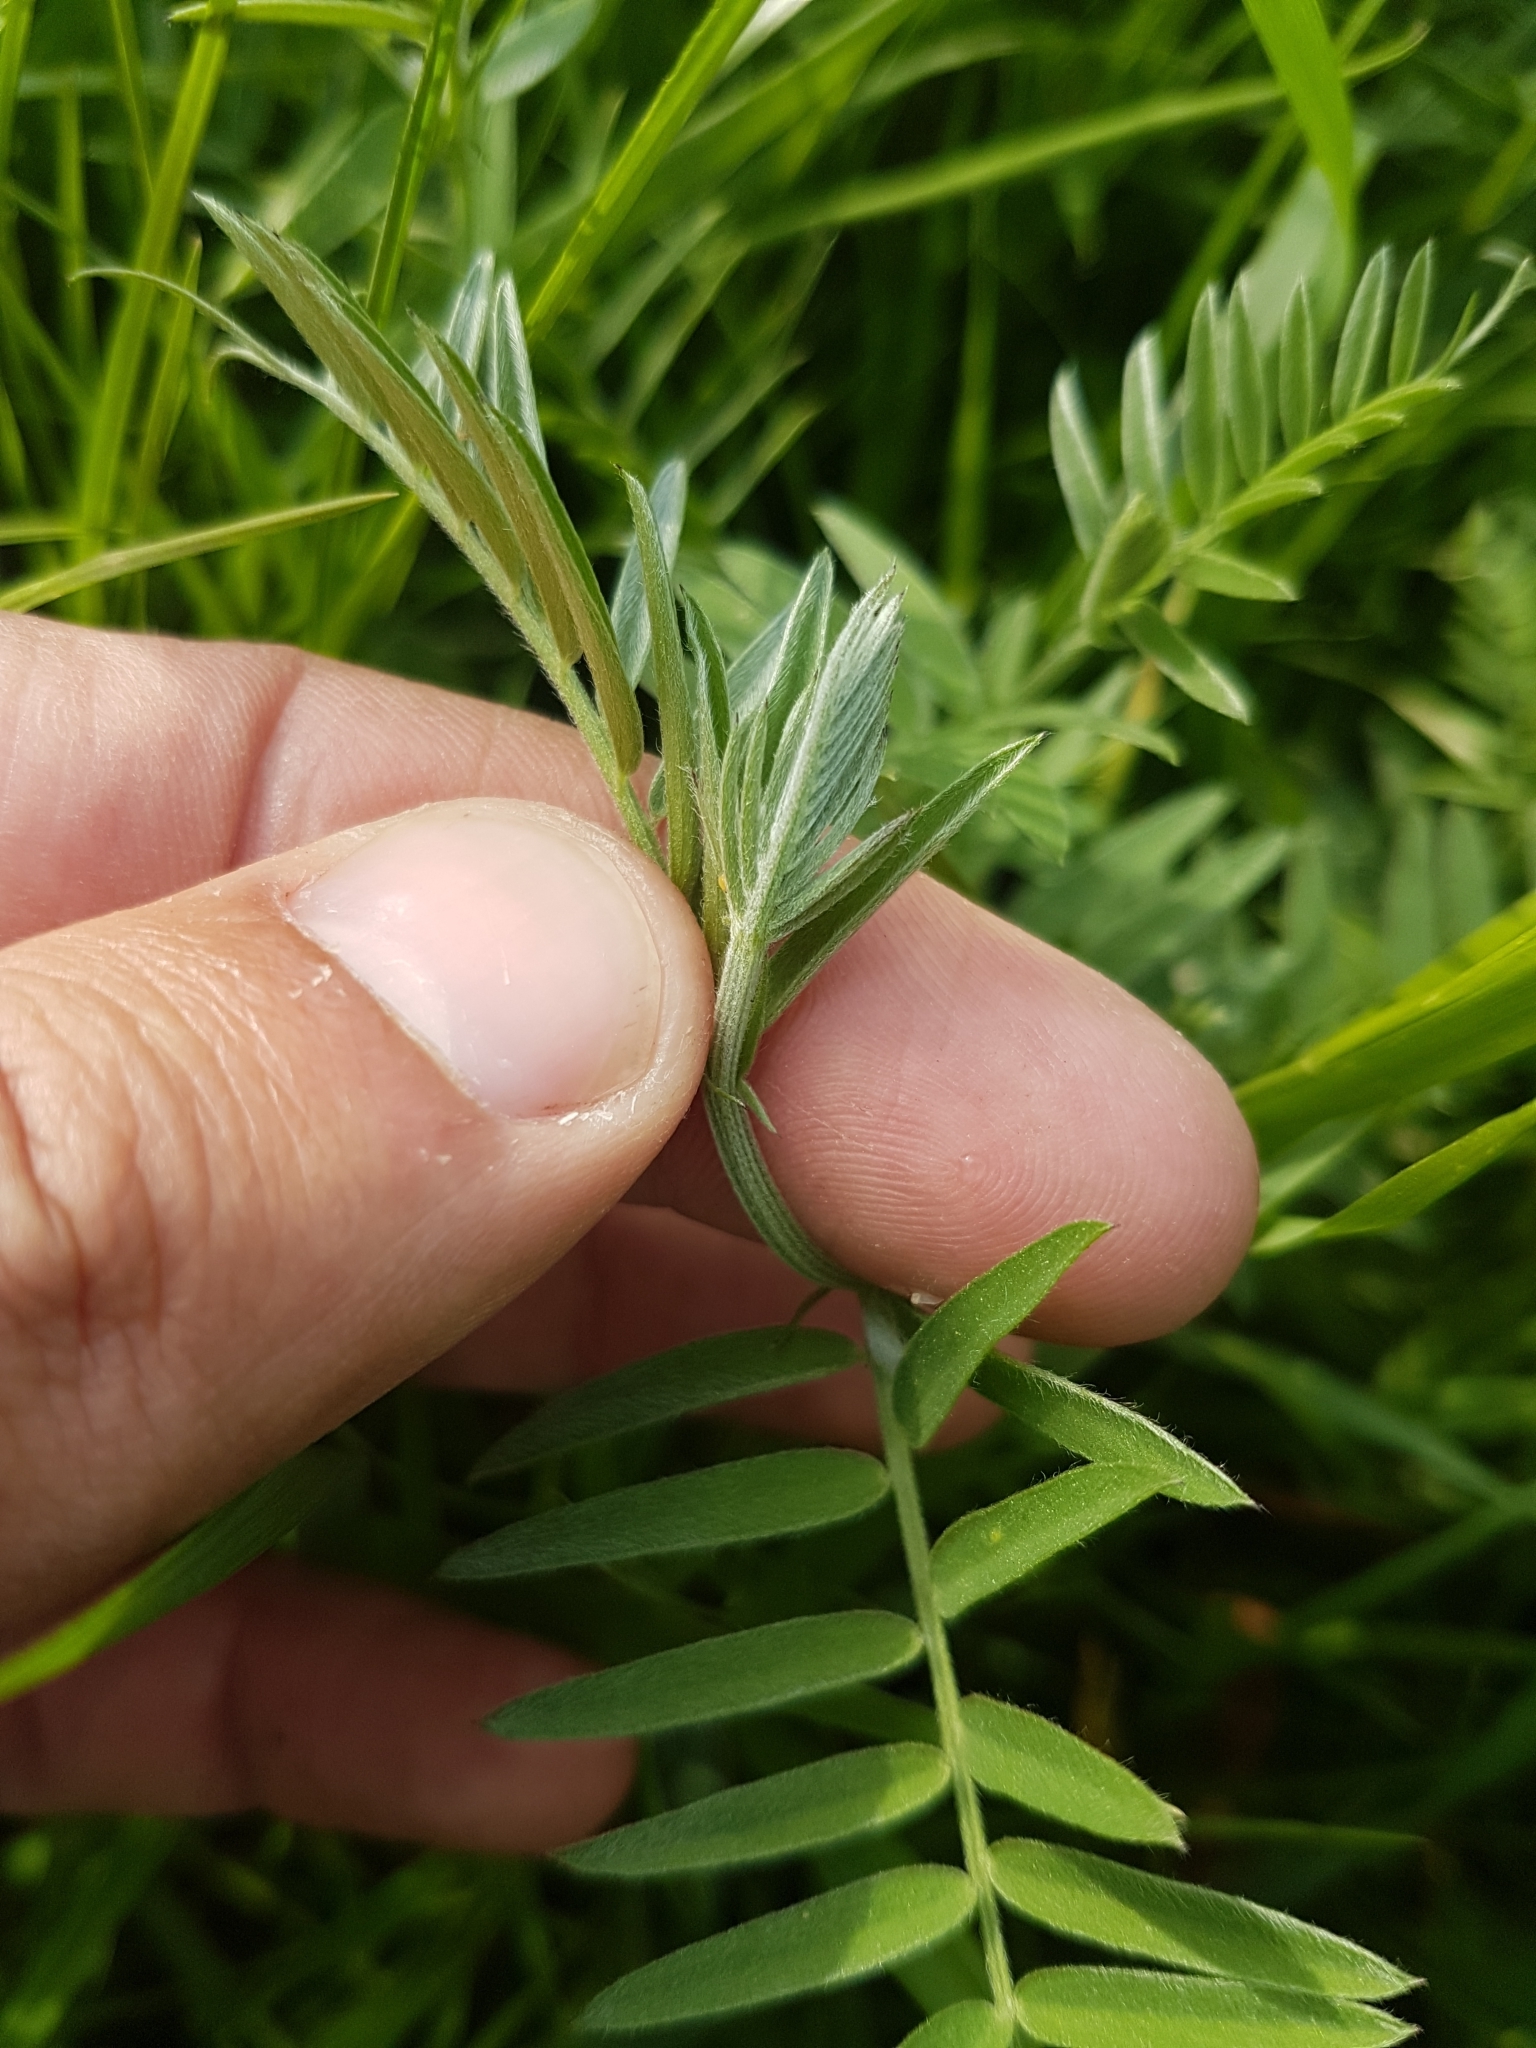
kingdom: Plantae
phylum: Tracheophyta
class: Magnoliopsida
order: Fabales
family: Fabaceae
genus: Vicia
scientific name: Vicia cracca
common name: Bird vetch
